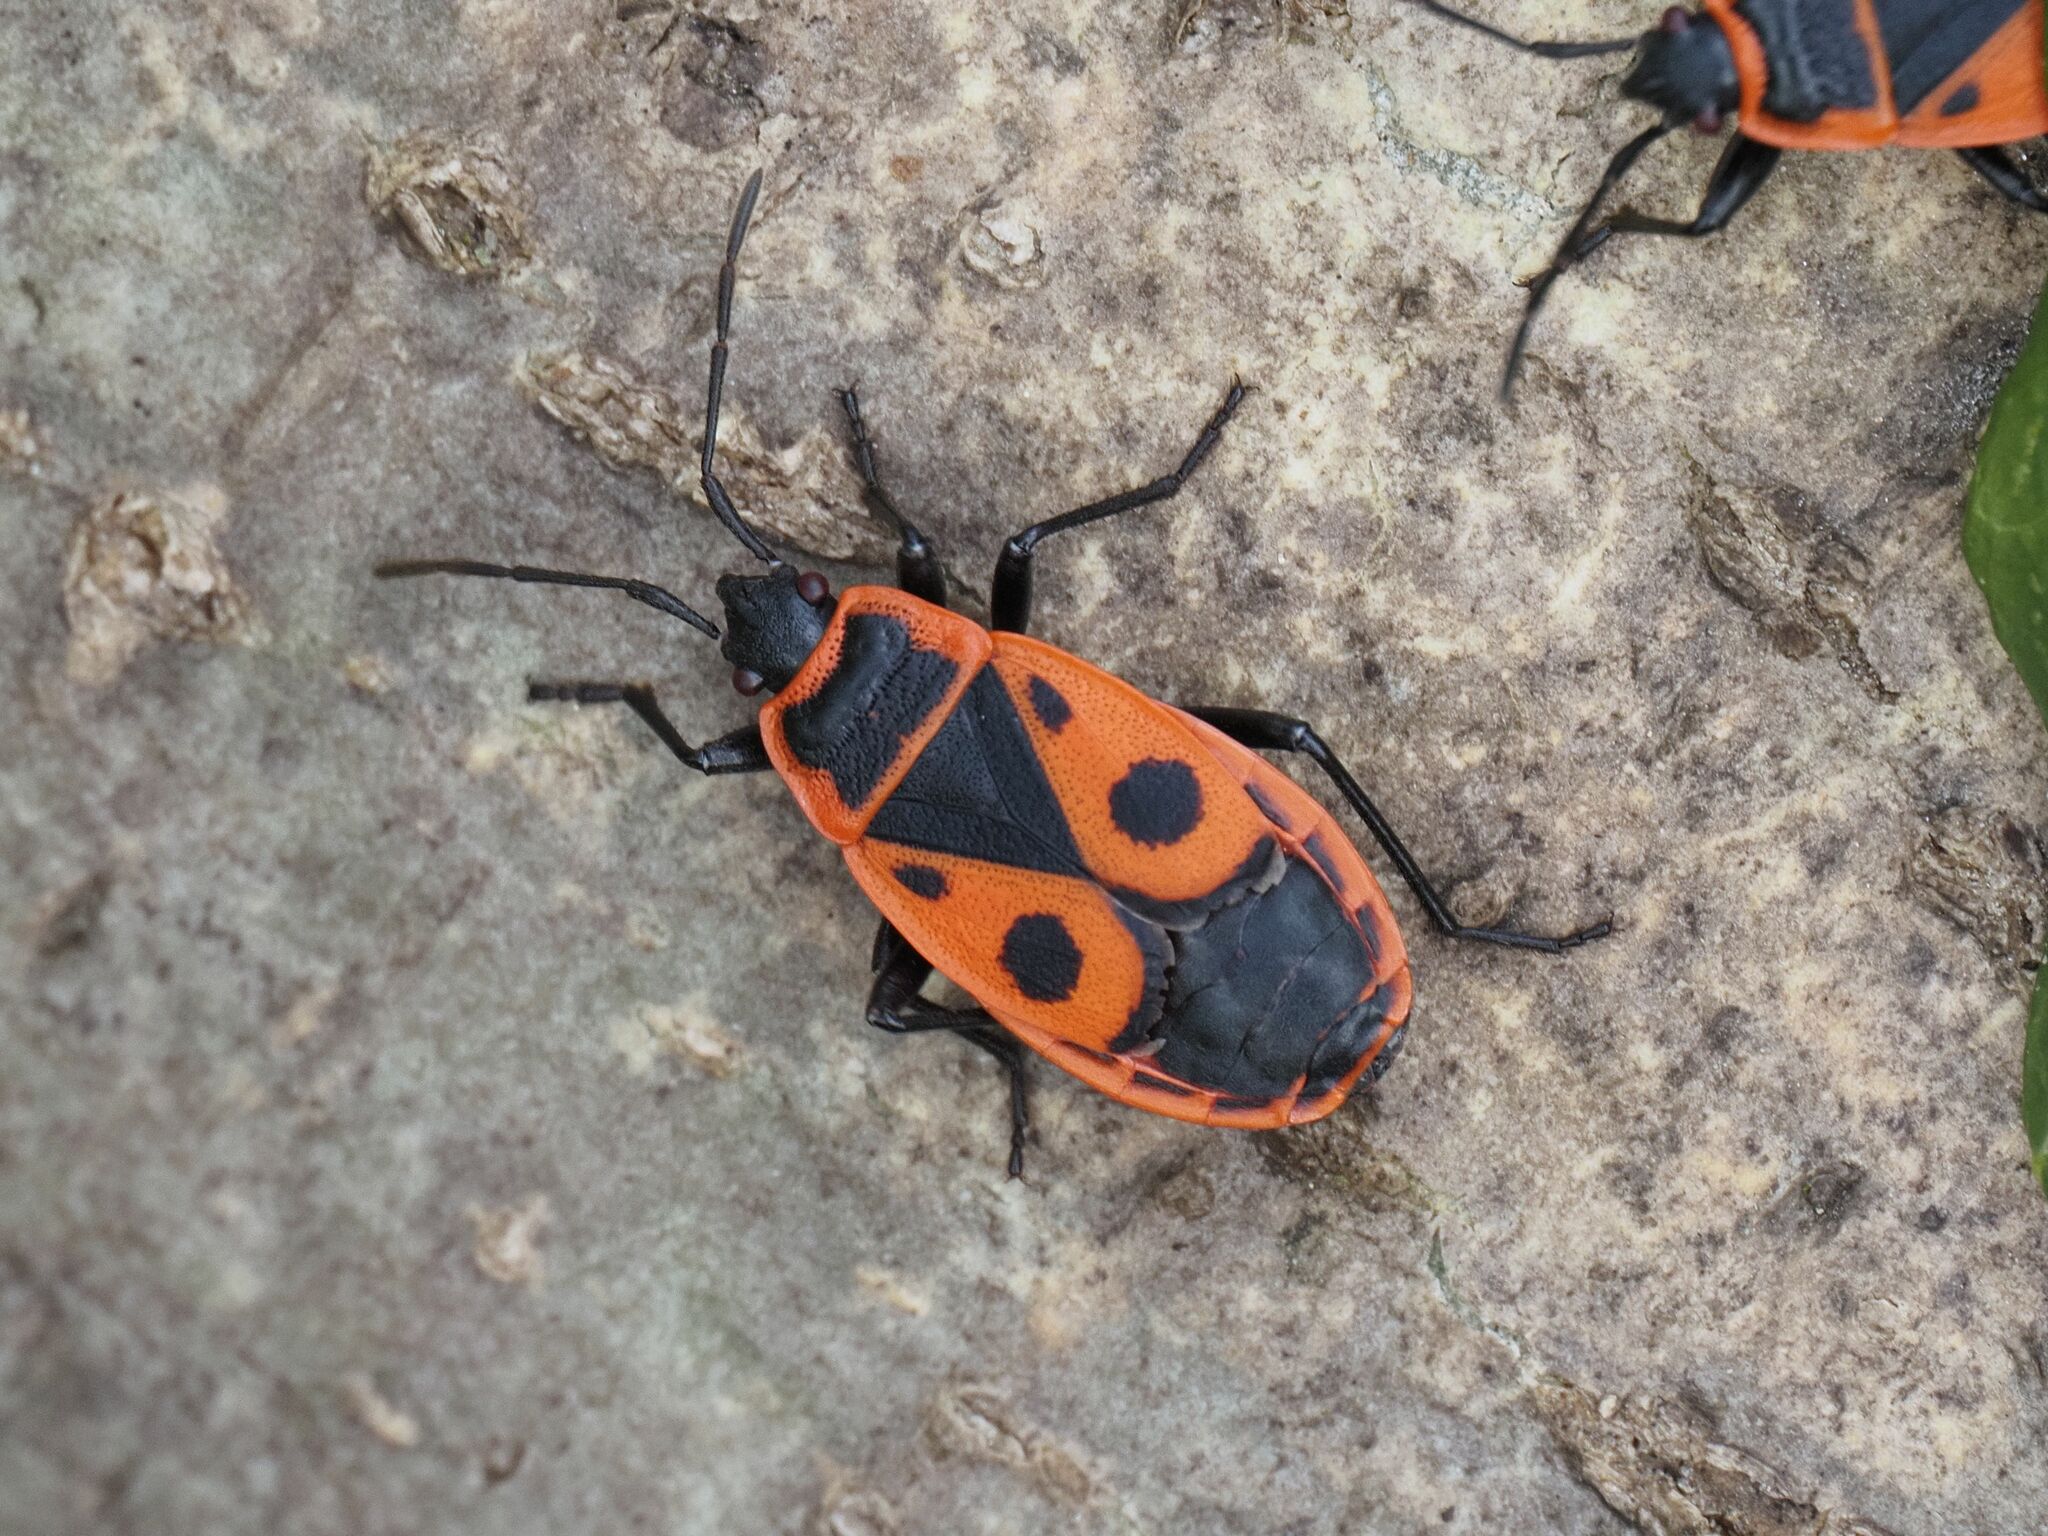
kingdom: Animalia
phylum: Arthropoda
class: Insecta
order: Hemiptera
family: Pyrrhocoridae
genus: Pyrrhocoris
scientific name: Pyrrhocoris apterus
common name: Firebug
